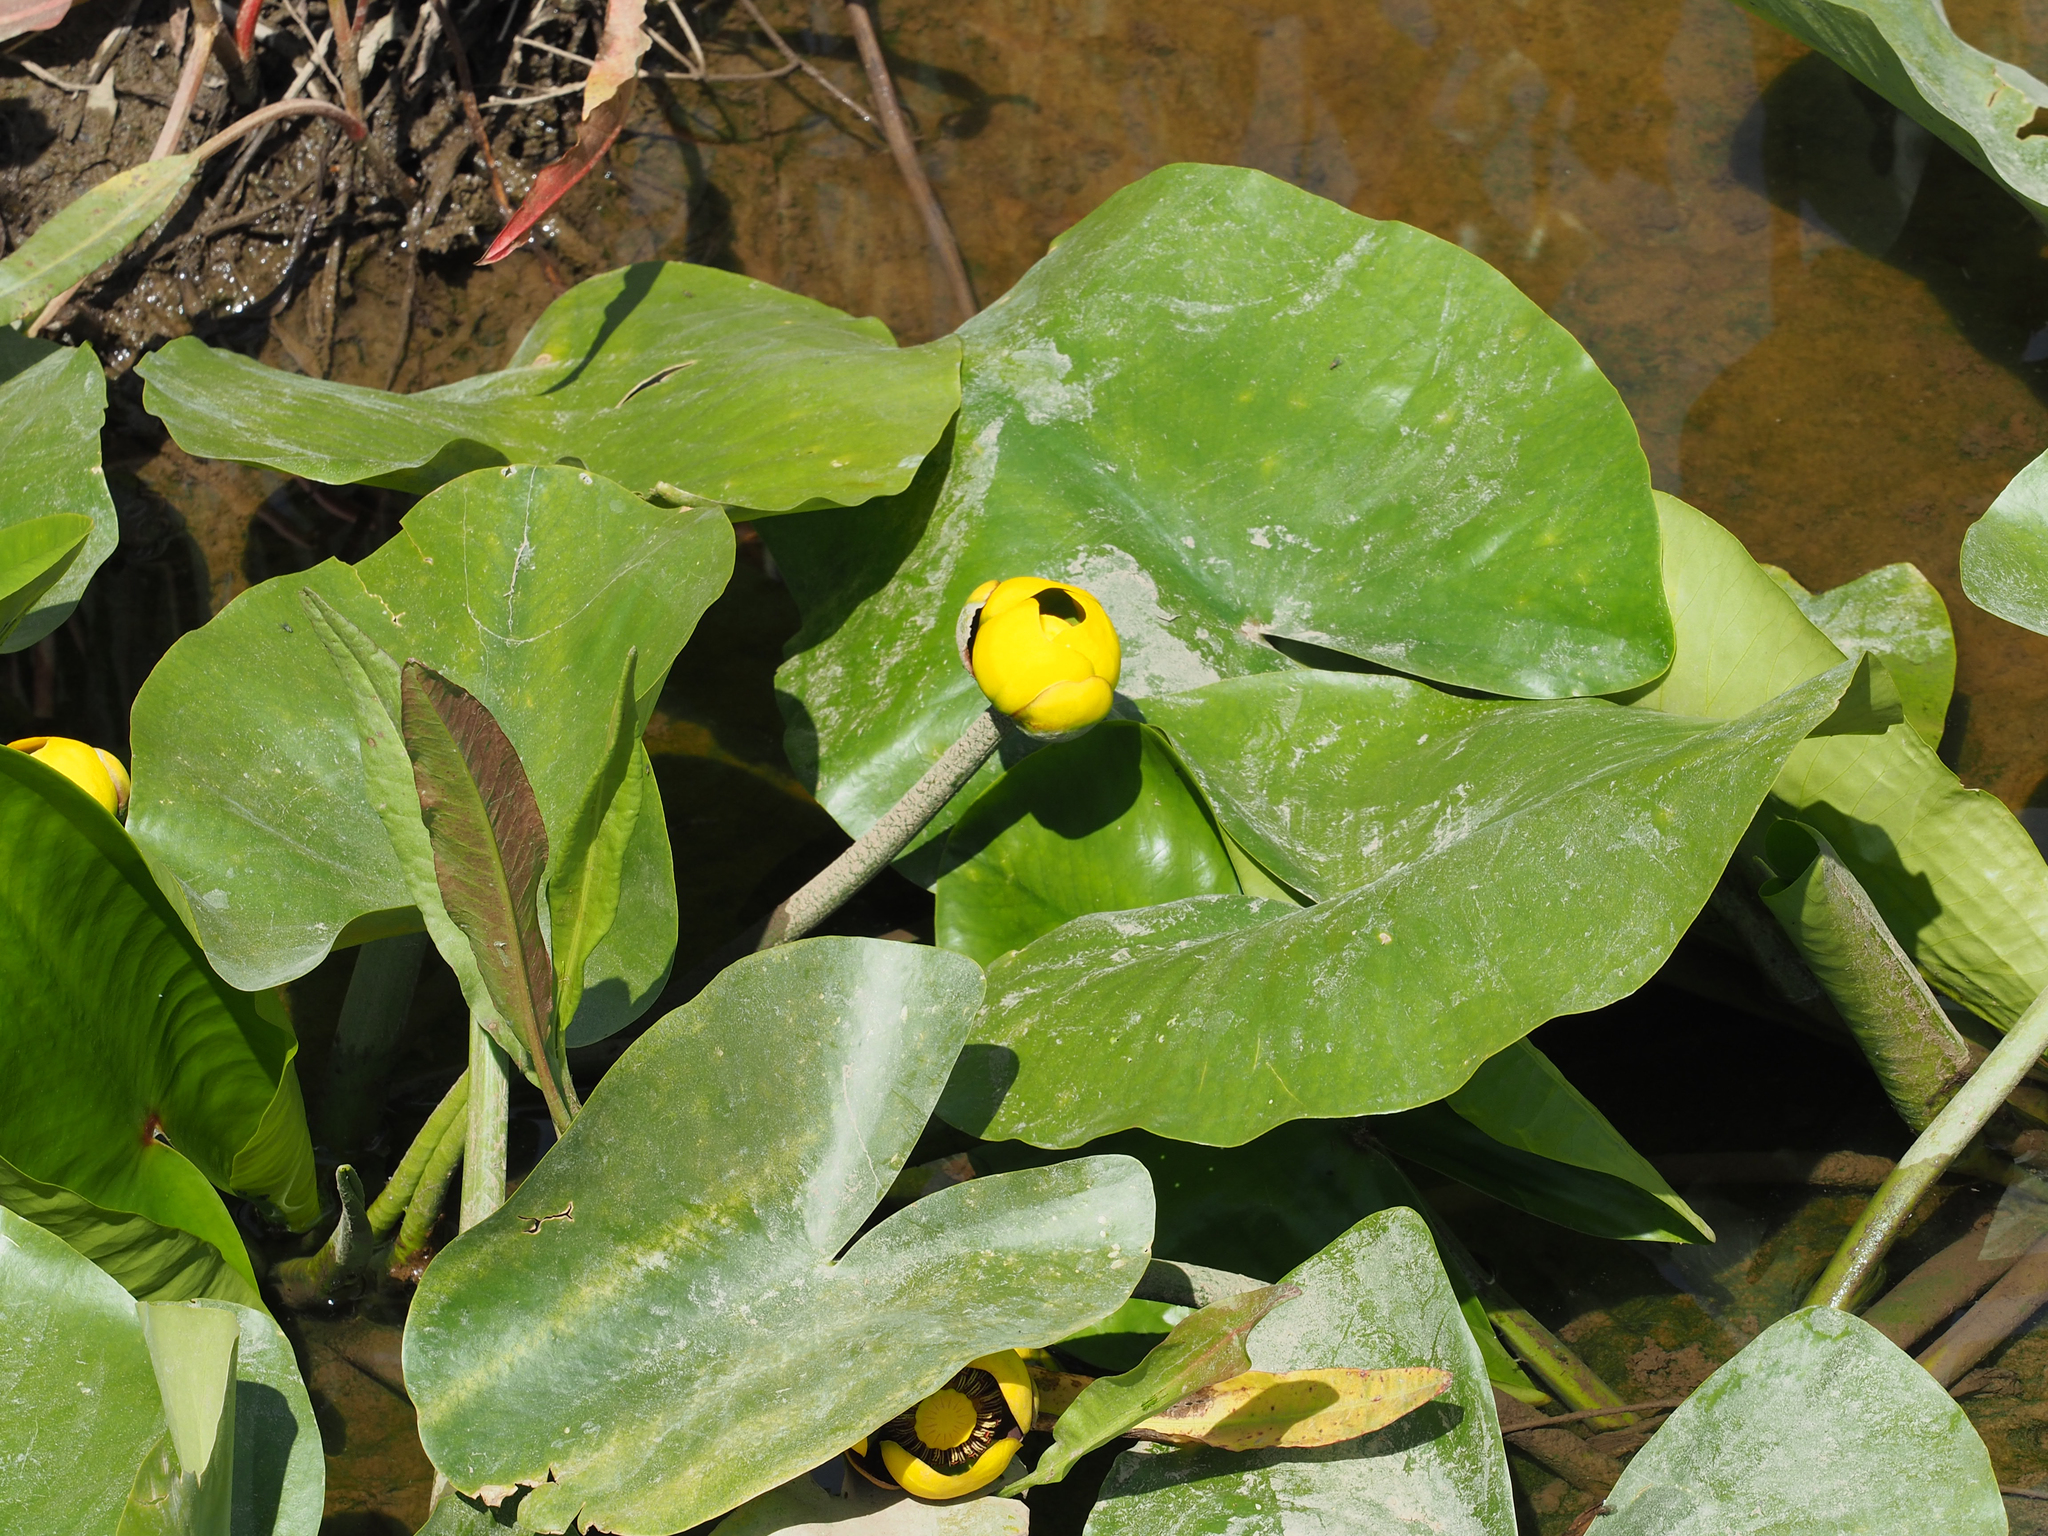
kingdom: Plantae
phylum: Tracheophyta
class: Magnoliopsida
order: Nymphaeales
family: Nymphaeaceae
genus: Nuphar
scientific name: Nuphar advena
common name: Spatter-dock
